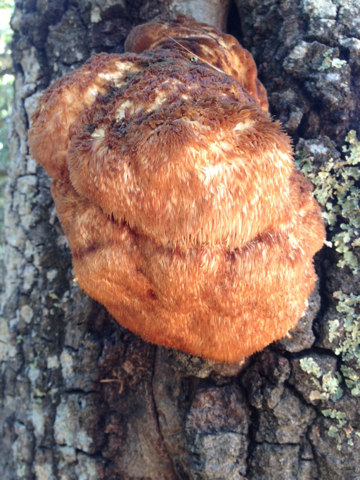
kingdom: Fungi
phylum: Basidiomycota
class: Agaricomycetes
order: Russulales
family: Hericiaceae
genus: Hericium
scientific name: Hericium erinaceus
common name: Bearded tooth
